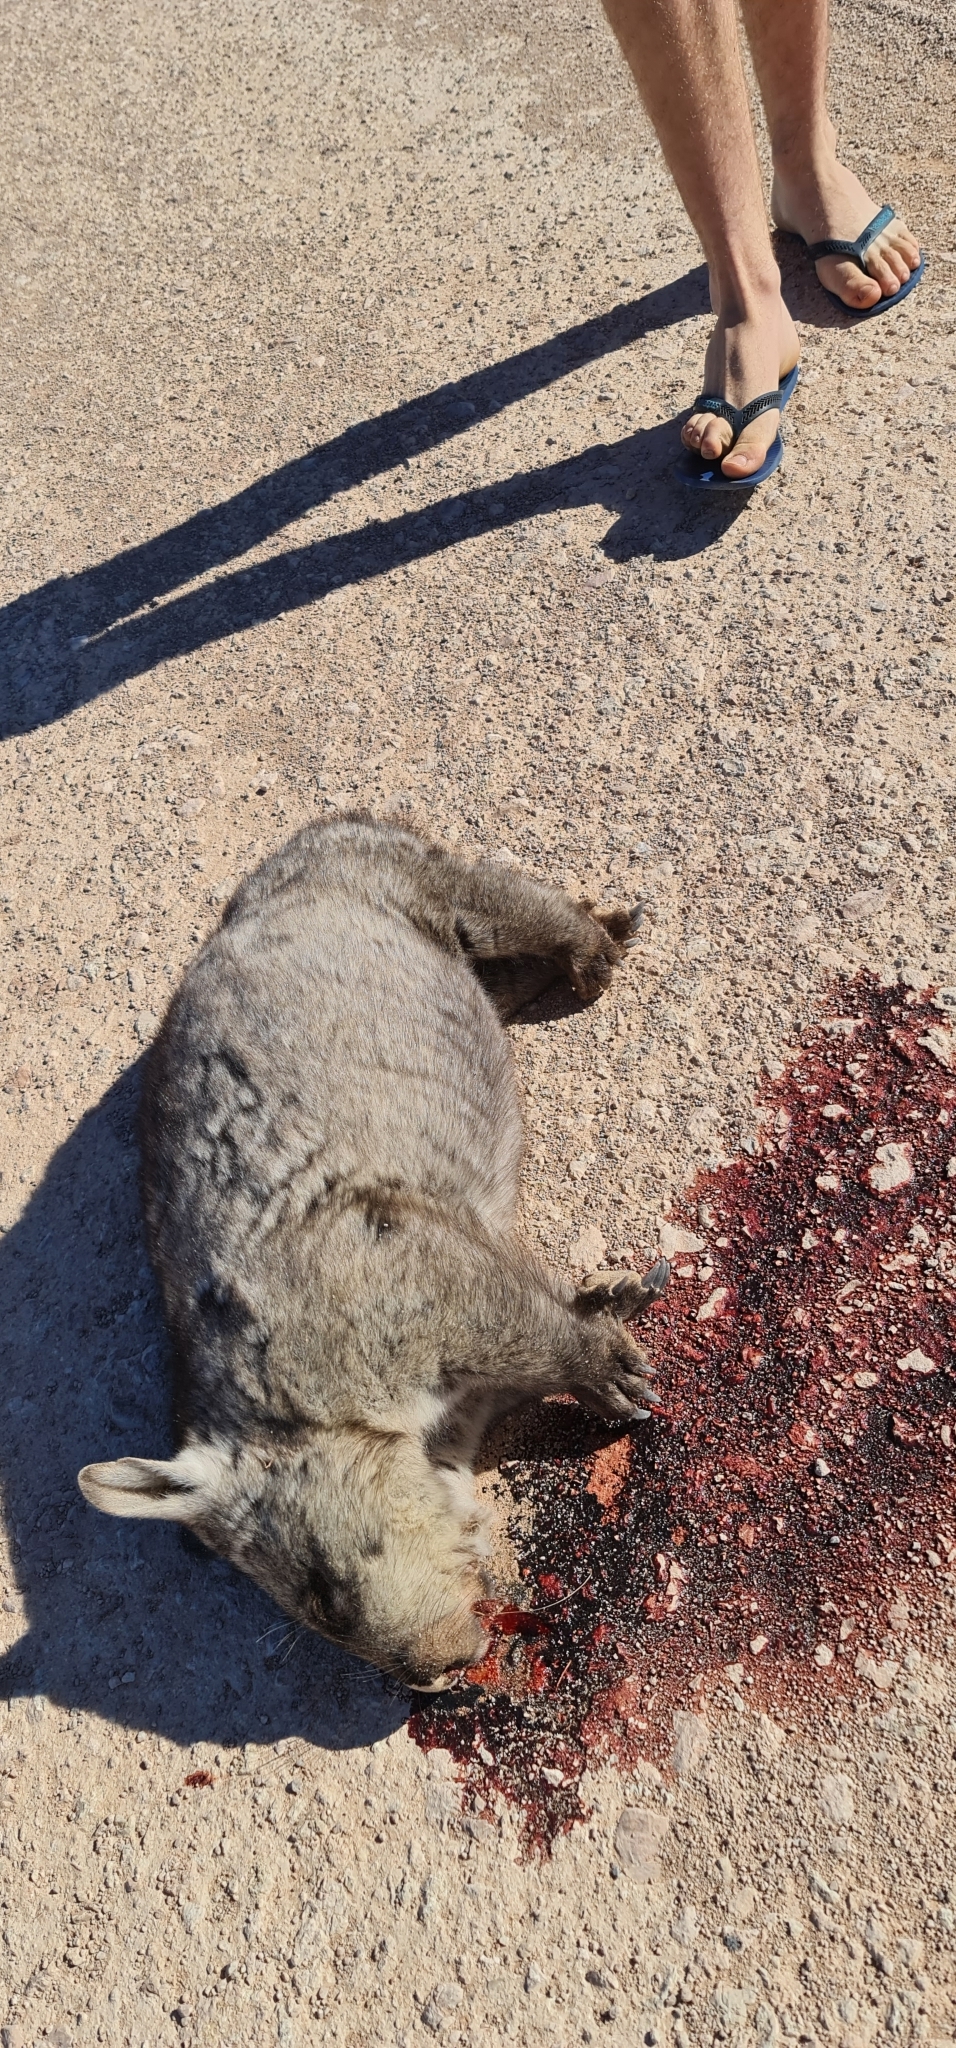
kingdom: Animalia
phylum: Chordata
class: Mammalia
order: Diprotodontia
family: Vombatidae
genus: Lasiorhinus
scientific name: Lasiorhinus latifrons
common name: Southern hairy-nosed wombat
